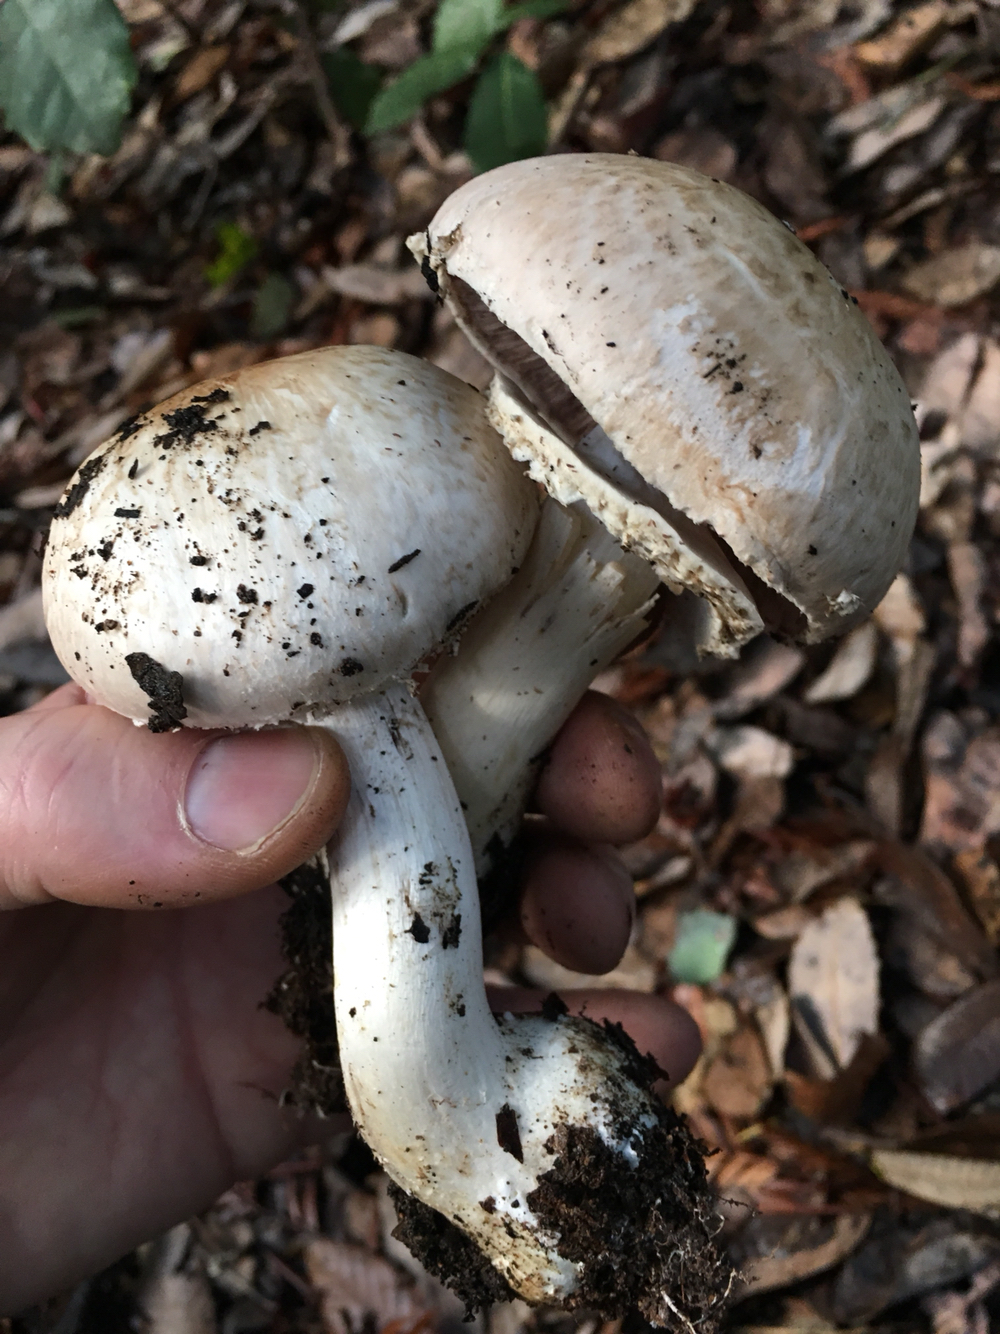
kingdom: Fungi
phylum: Basidiomycota
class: Agaricomycetes
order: Agaricales
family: Agaricaceae
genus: Agaricus
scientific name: Agaricus hondensis
